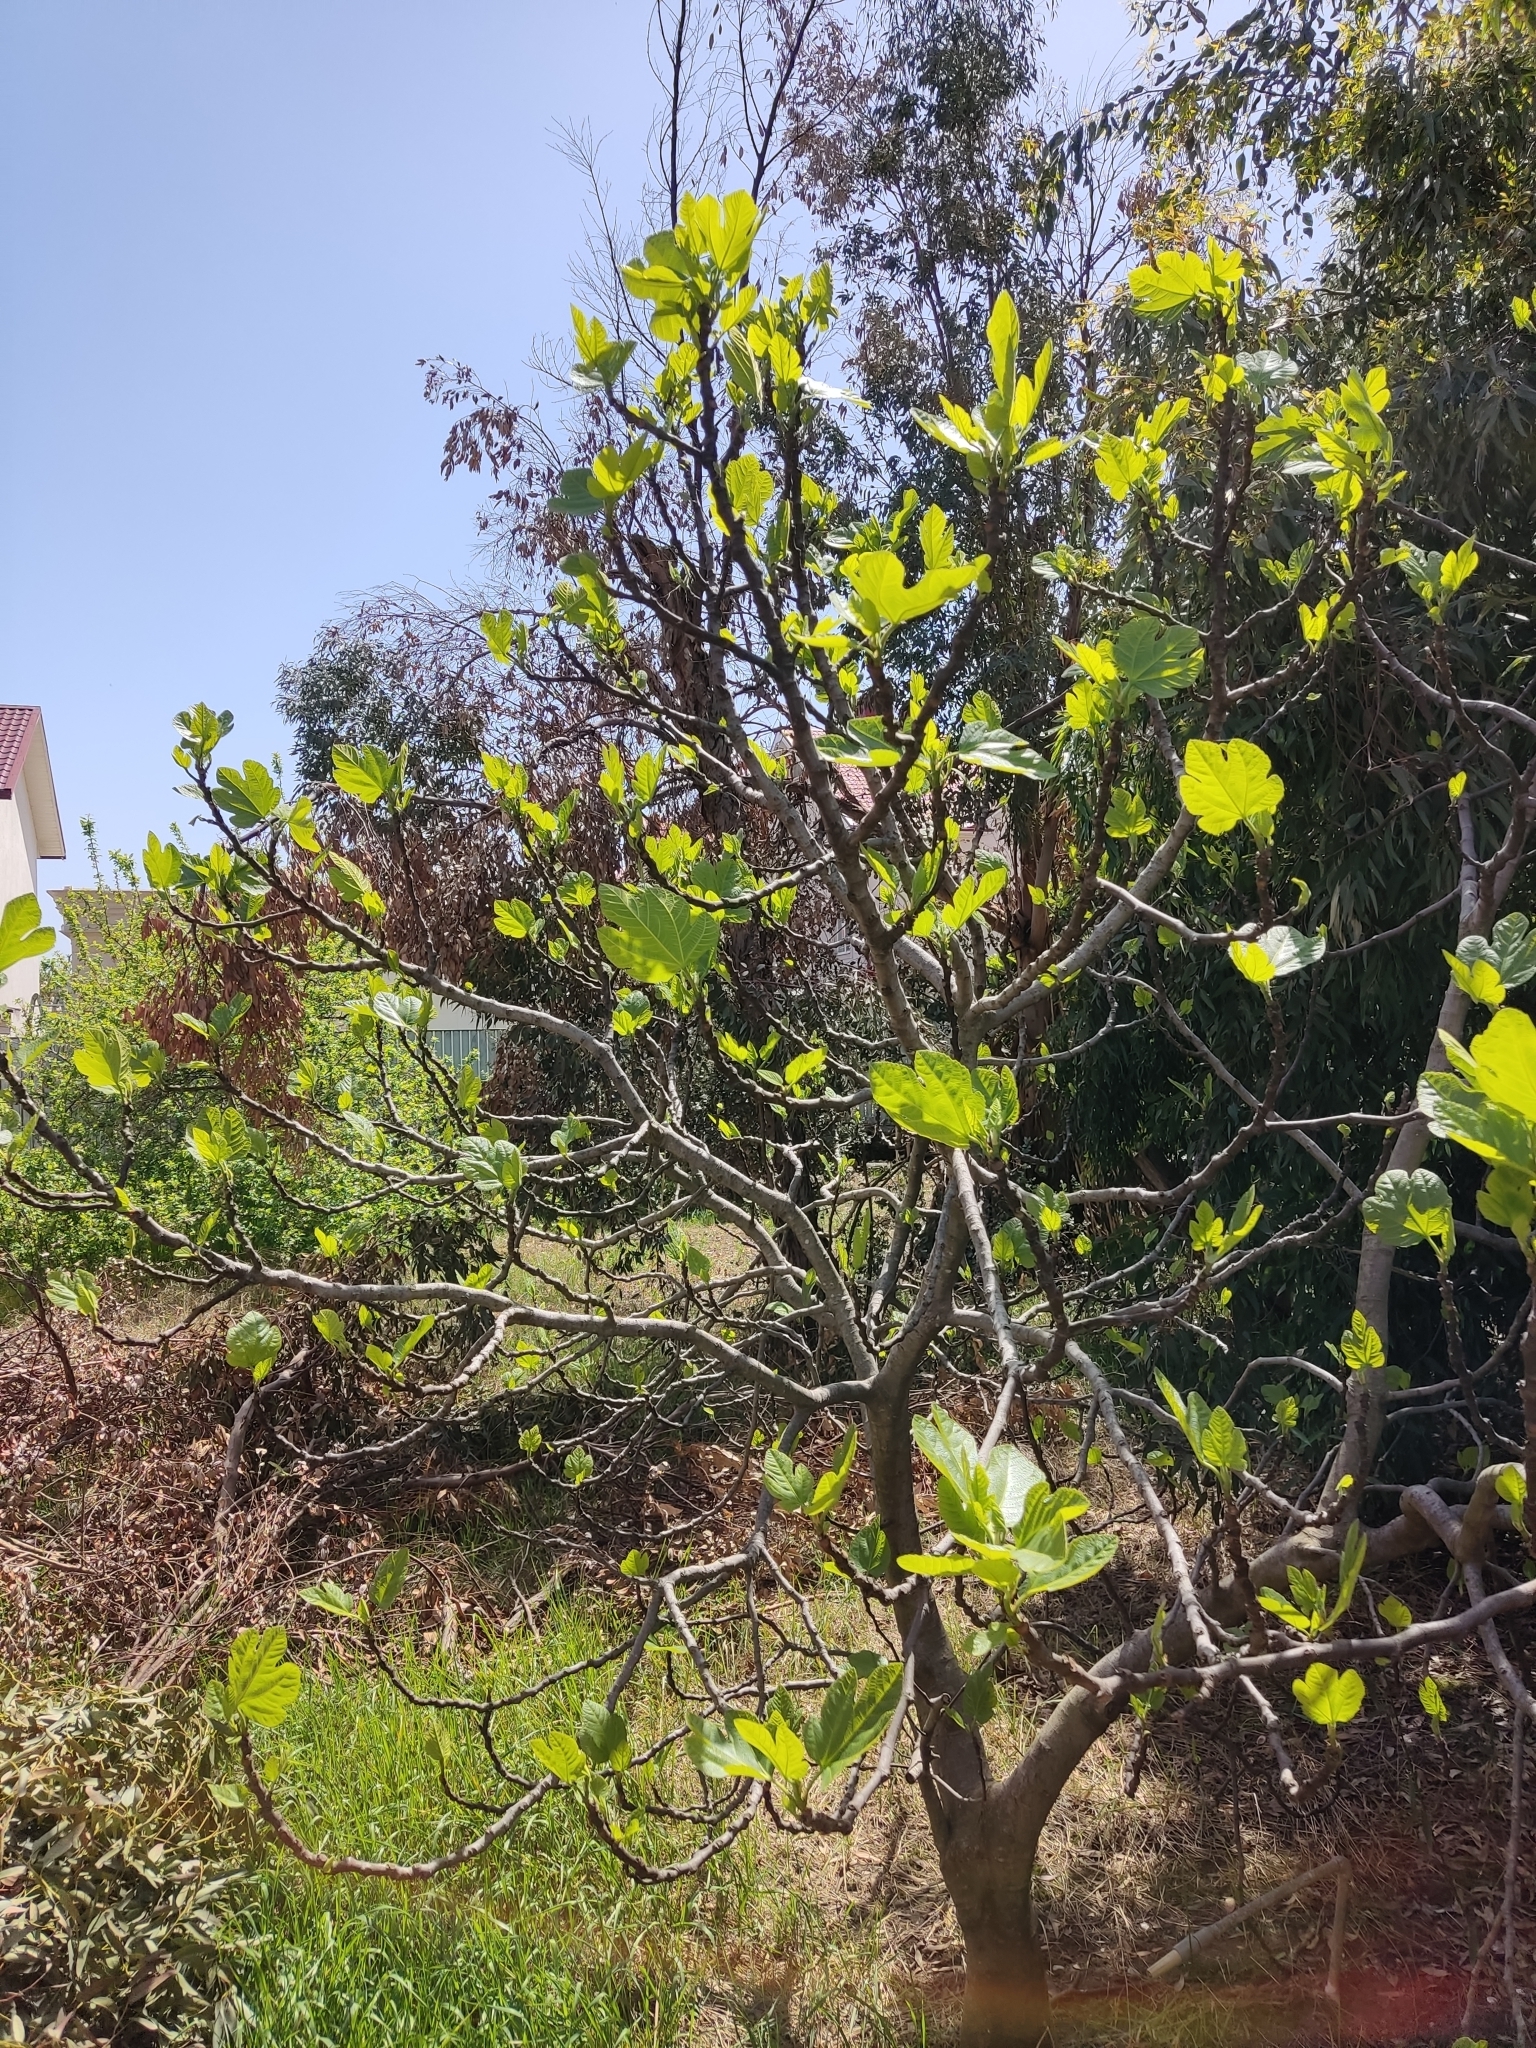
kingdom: Plantae
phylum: Tracheophyta
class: Magnoliopsida
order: Rosales
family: Moraceae
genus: Ficus
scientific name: Ficus carica
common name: Fig
